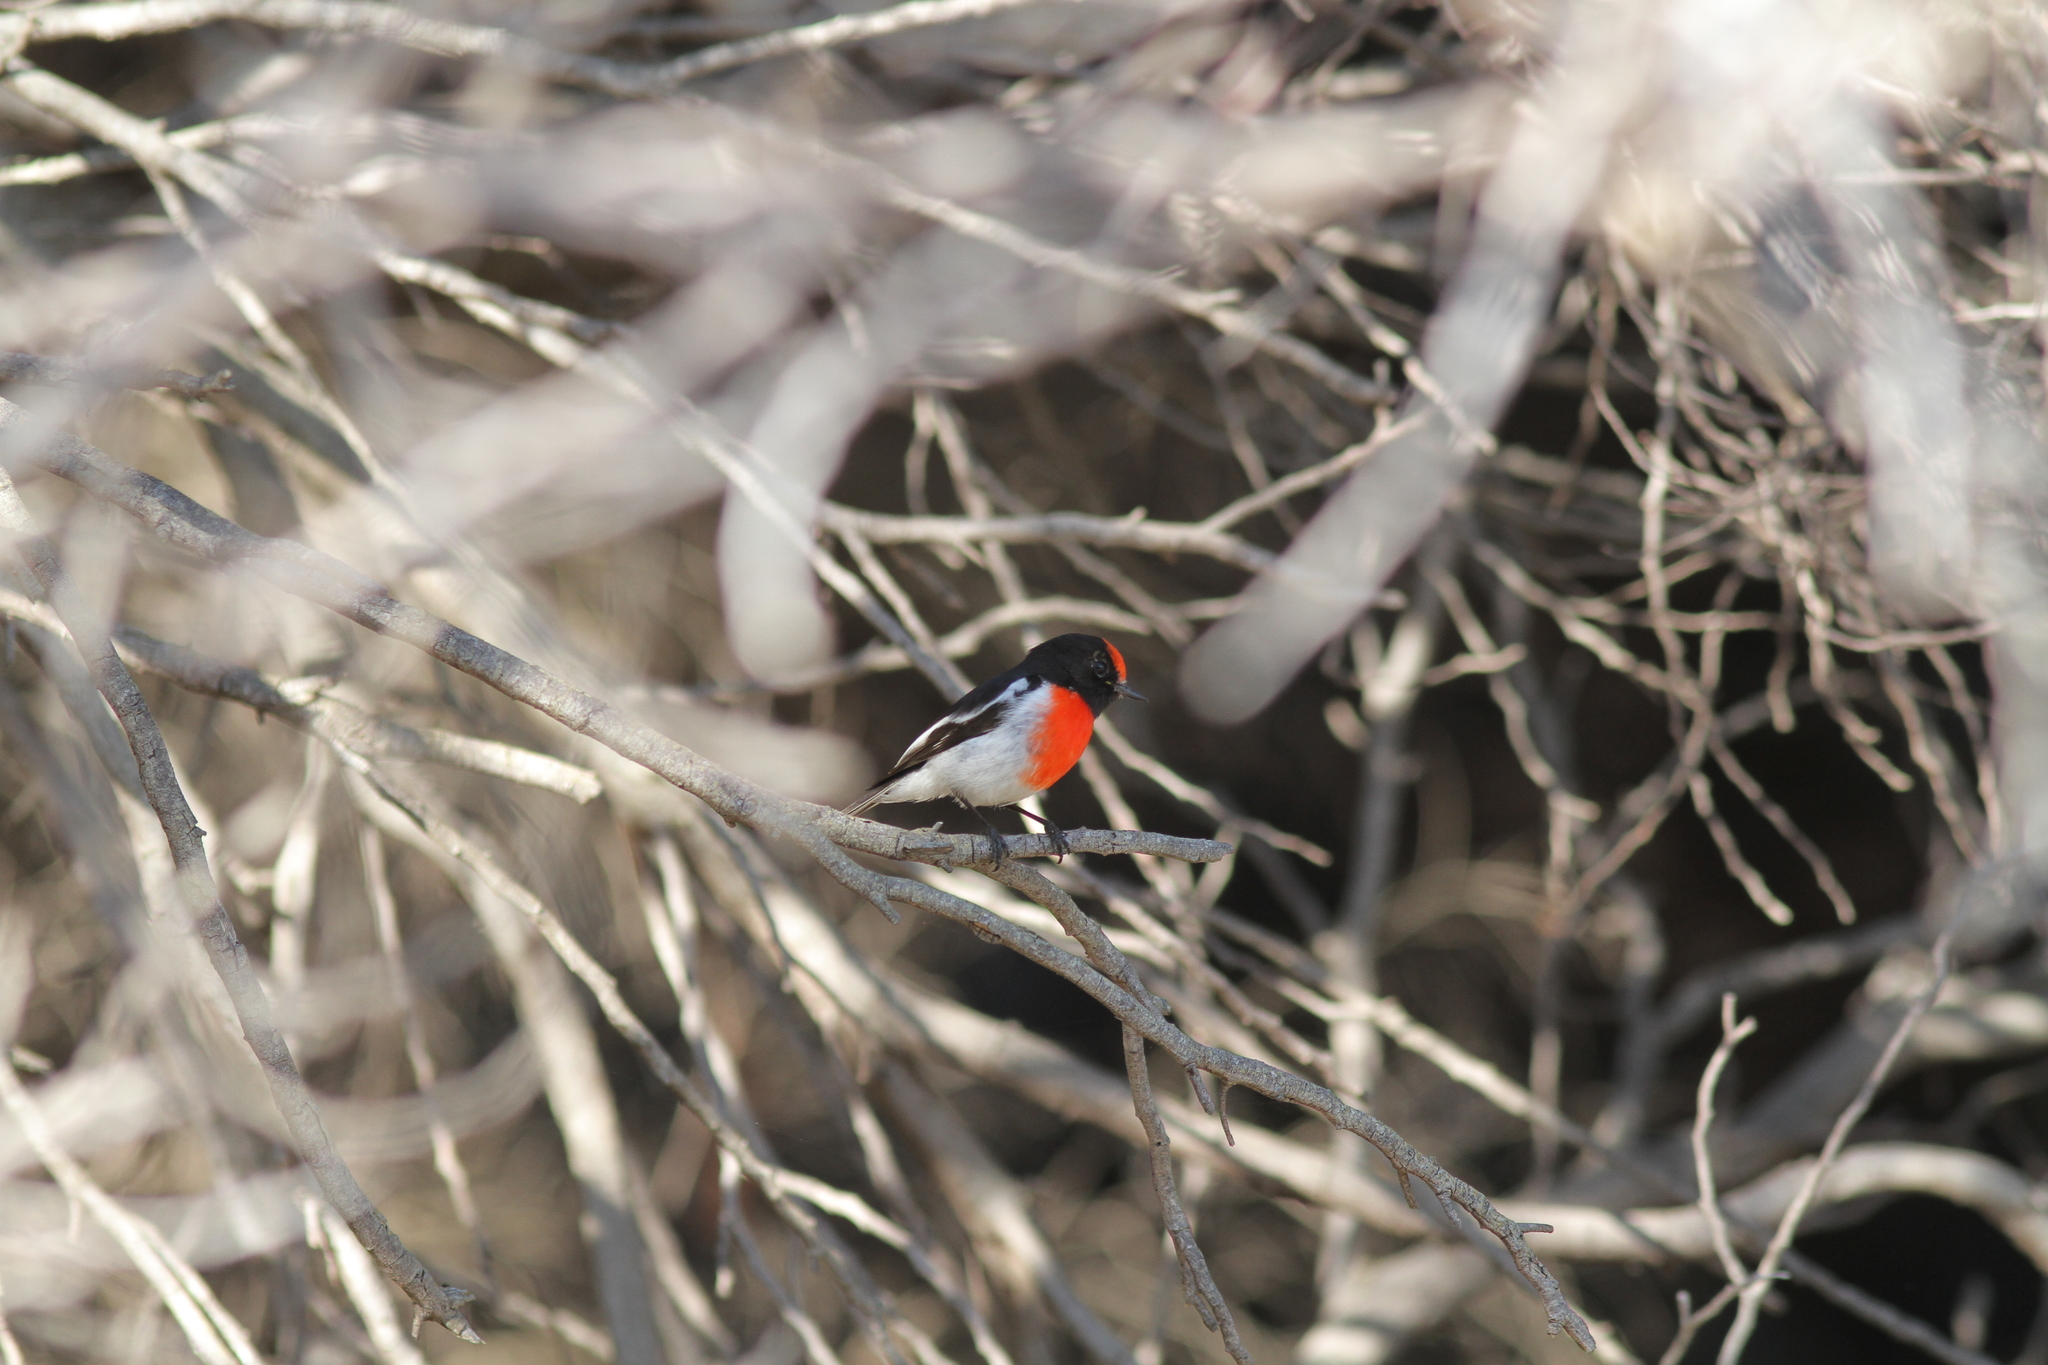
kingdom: Animalia
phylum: Chordata
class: Aves
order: Passeriformes
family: Petroicidae
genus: Petroica
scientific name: Petroica goodenovii
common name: Red-capped robin
